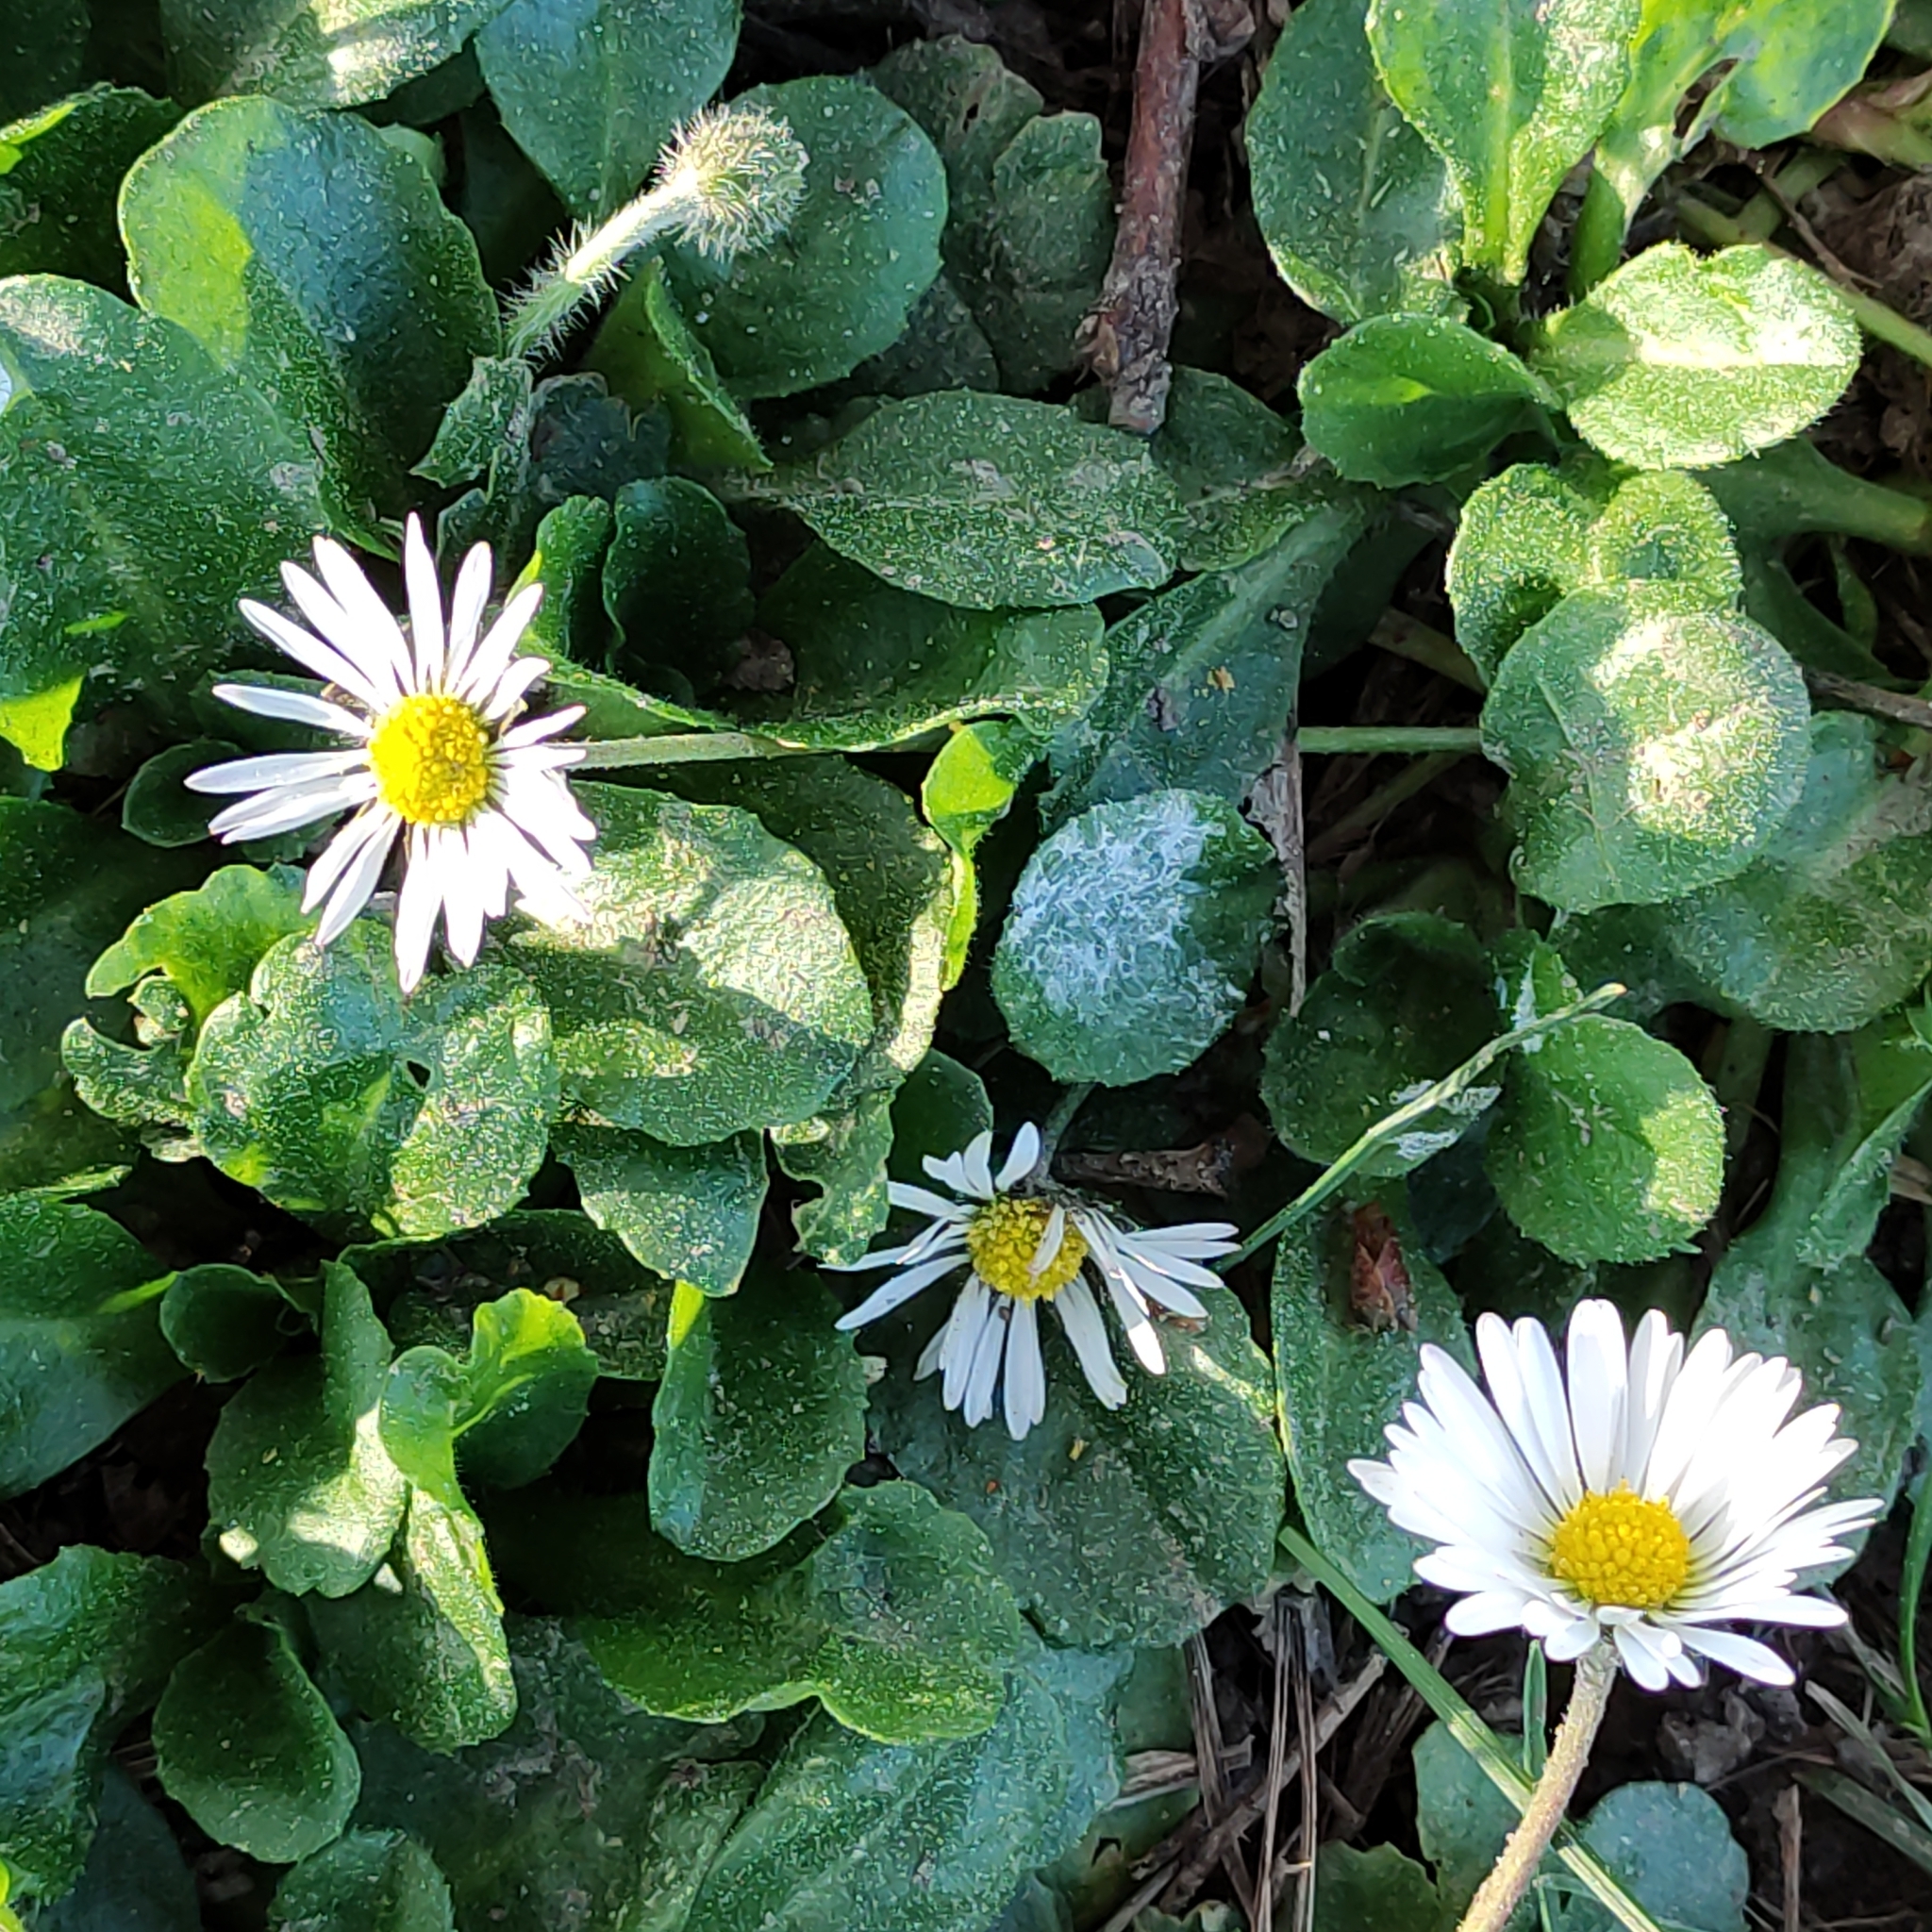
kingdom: Plantae
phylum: Tracheophyta
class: Magnoliopsida
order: Asterales
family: Asteraceae
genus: Bellis
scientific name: Bellis perennis
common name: Lawndaisy
